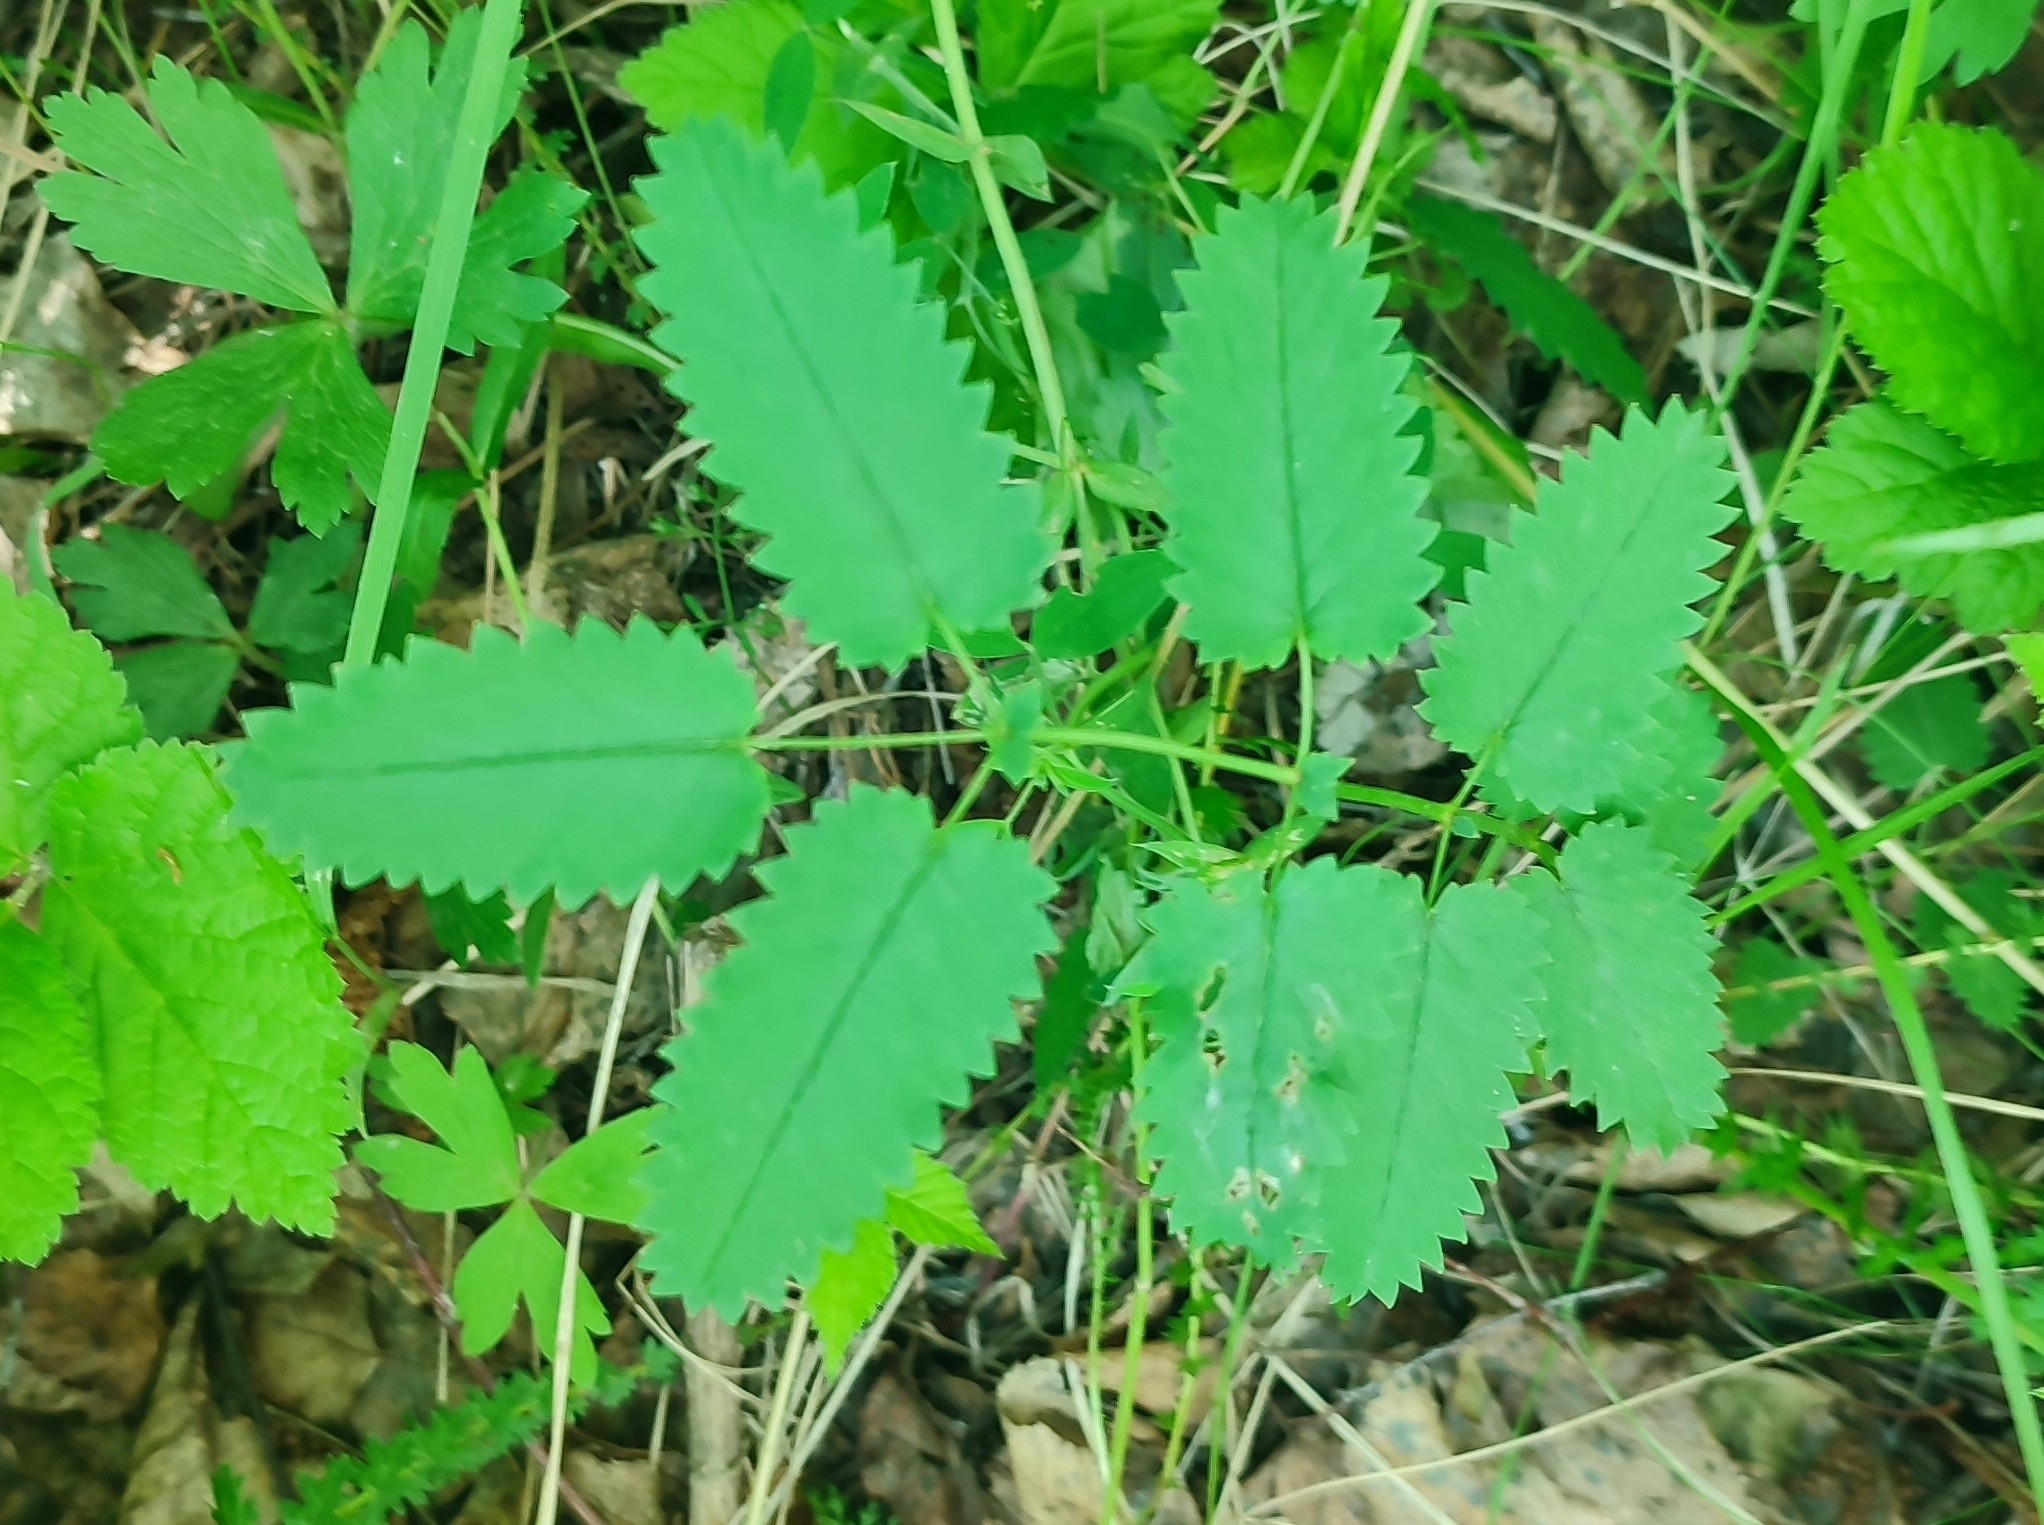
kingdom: Plantae
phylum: Tracheophyta
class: Magnoliopsida
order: Rosales
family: Rosaceae
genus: Sanguisorba
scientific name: Sanguisorba officinalis
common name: Great burnet
